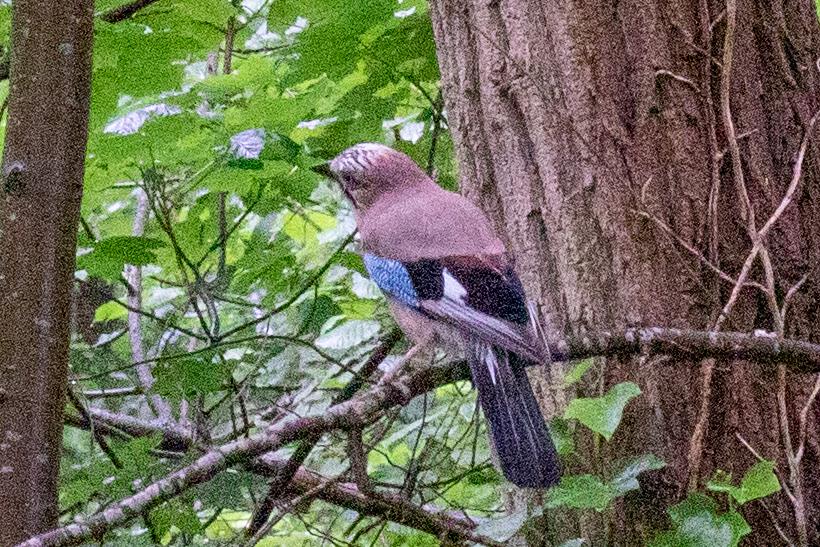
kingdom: Animalia
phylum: Chordata
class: Aves
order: Passeriformes
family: Corvidae
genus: Garrulus
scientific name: Garrulus glandarius
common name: Eurasian jay
